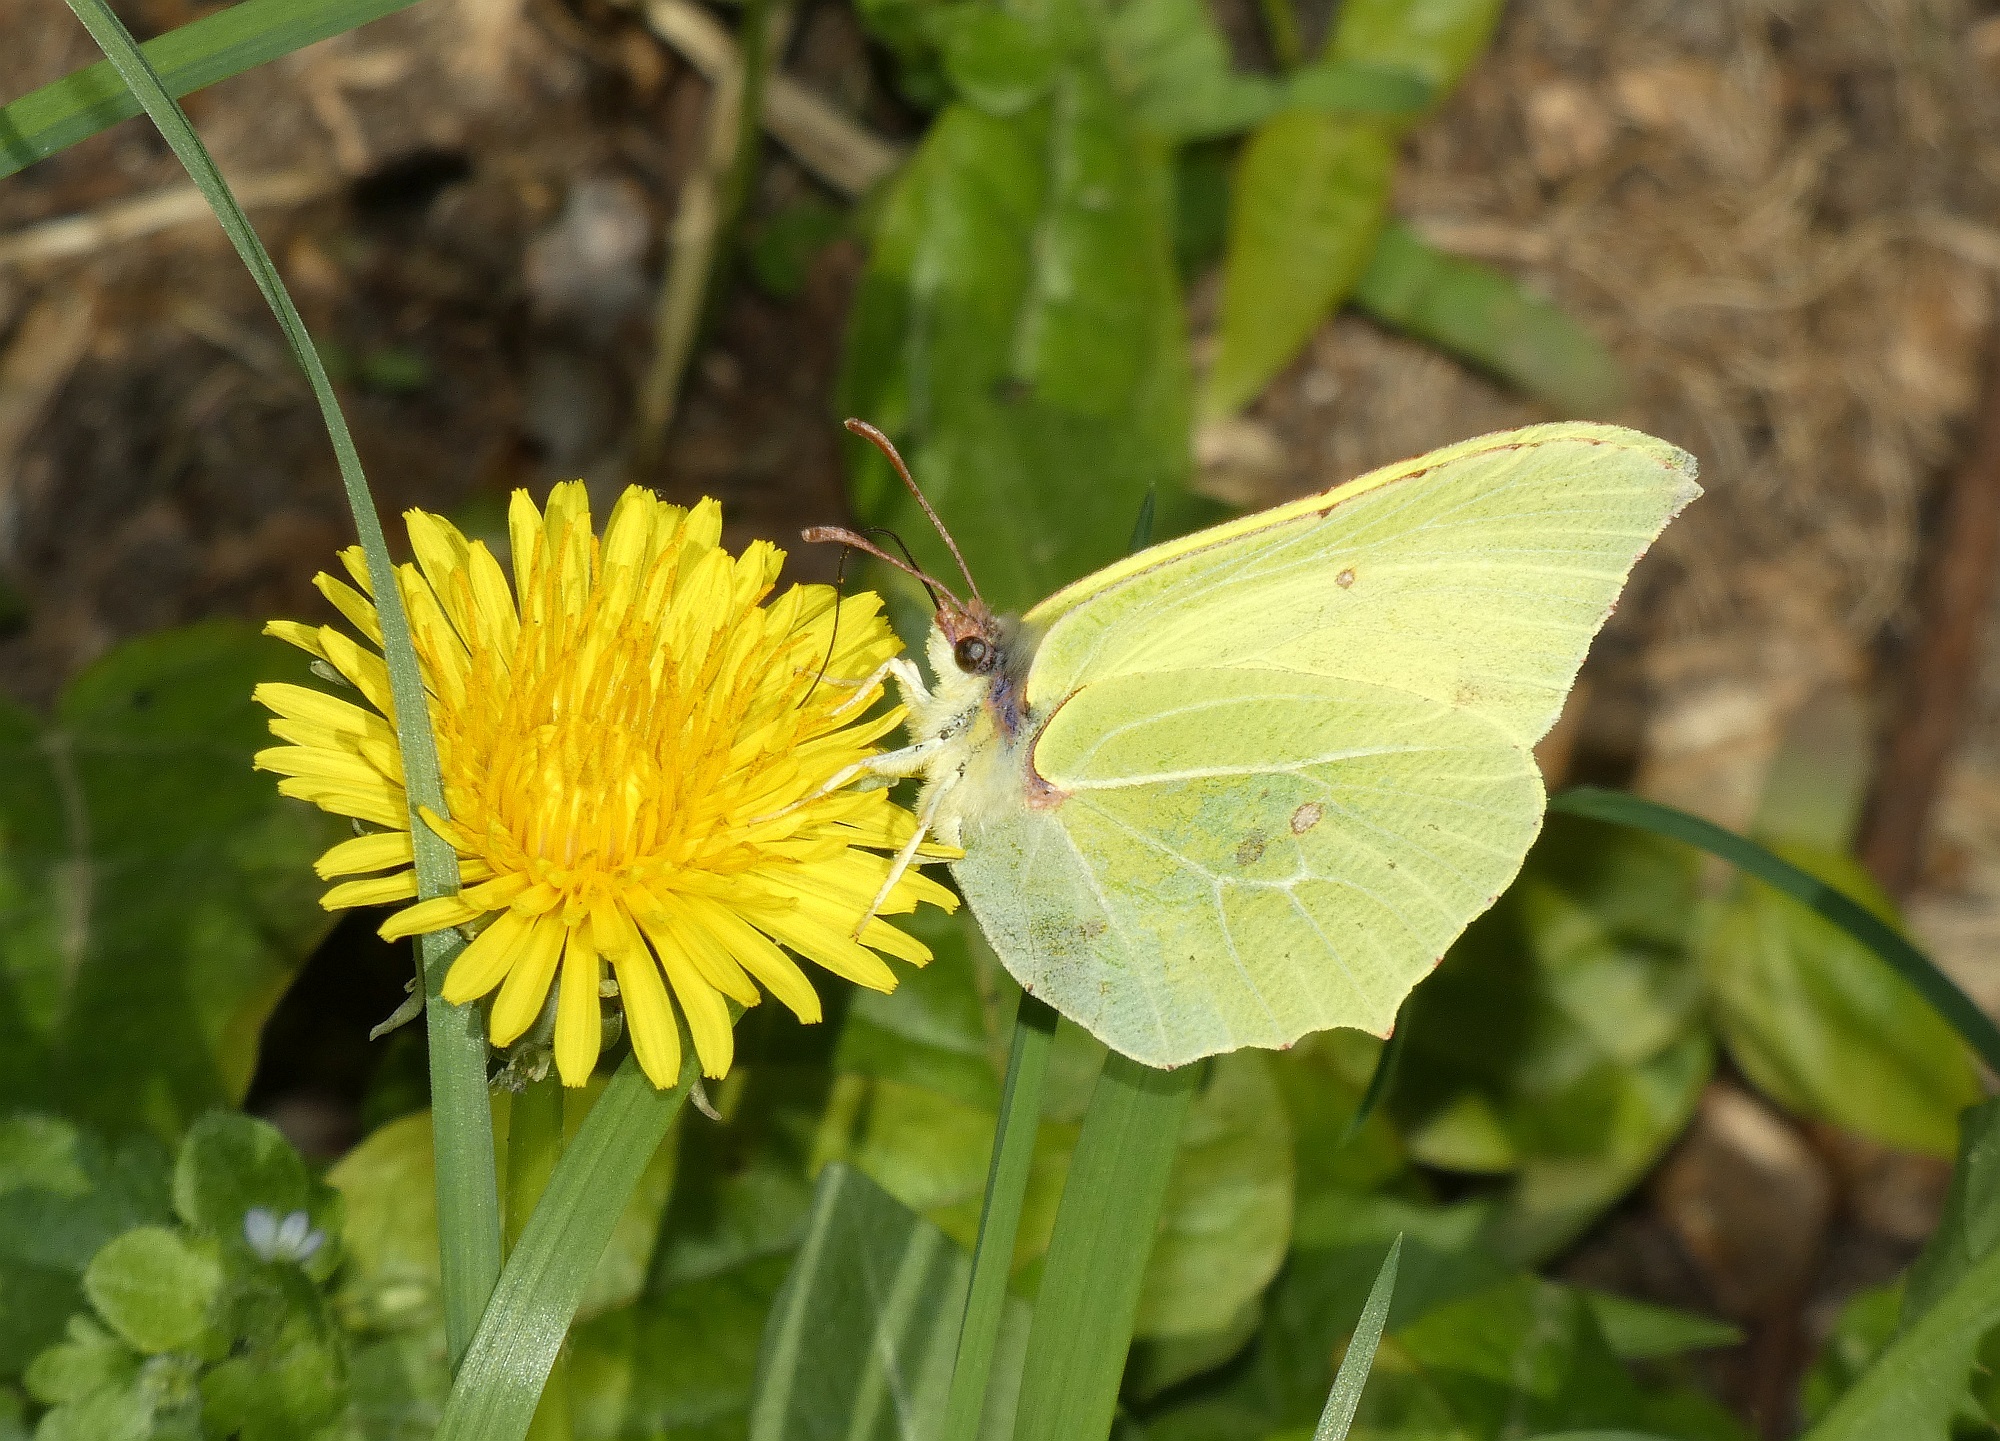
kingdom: Animalia
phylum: Arthropoda
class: Insecta
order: Lepidoptera
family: Pieridae
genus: Gonepteryx
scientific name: Gonepteryx rhamni
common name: Brimstone
